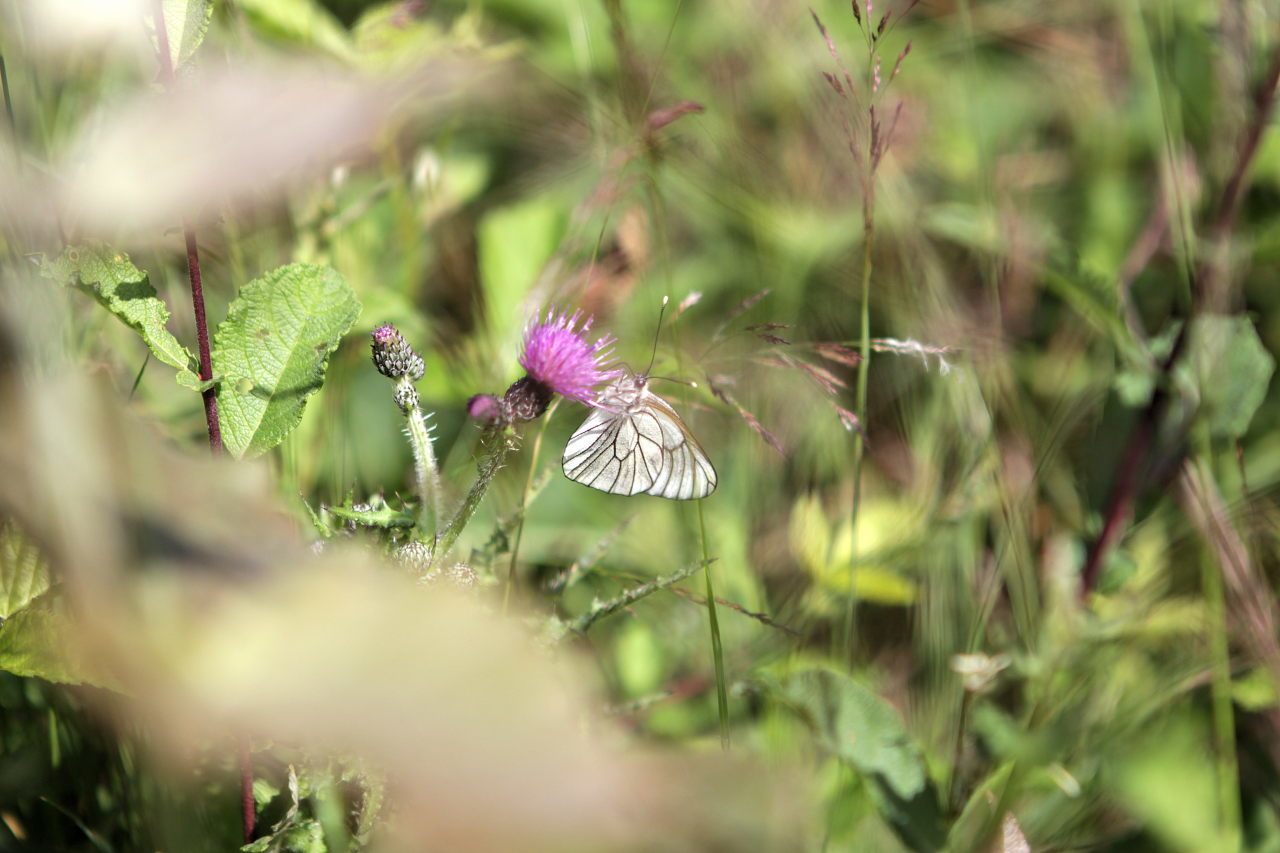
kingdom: Animalia
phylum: Arthropoda
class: Insecta
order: Lepidoptera
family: Pieridae
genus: Aporia
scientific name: Aporia crataegi
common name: Black-veined white
